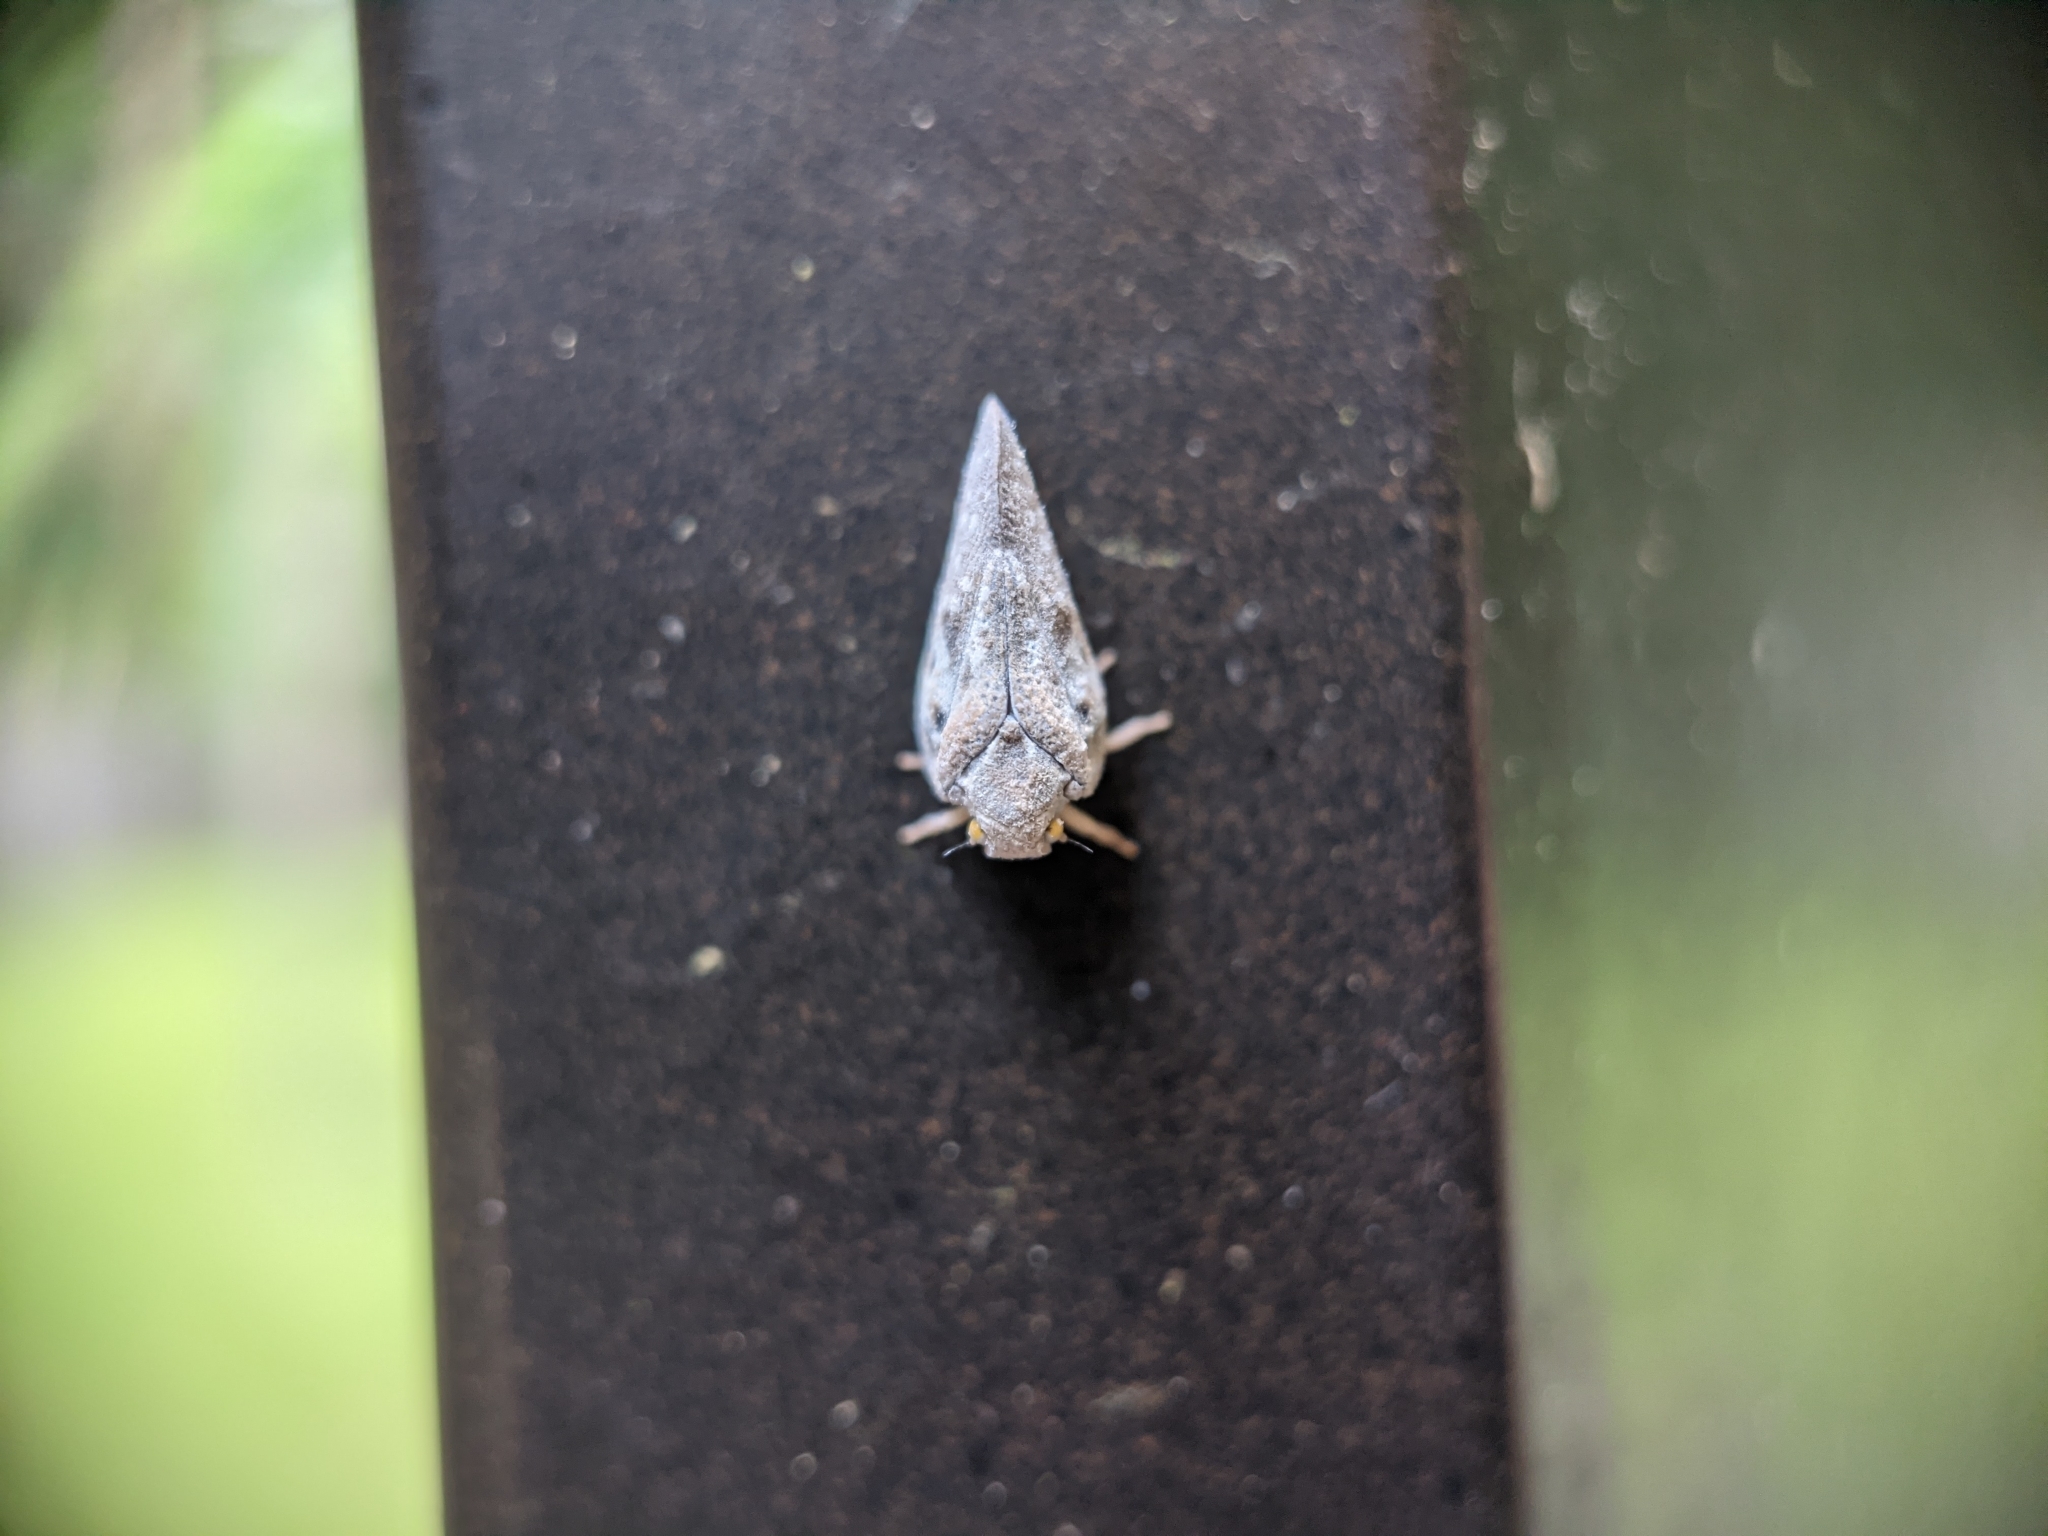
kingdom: Animalia
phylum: Arthropoda
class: Insecta
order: Hemiptera
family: Flatidae
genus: Metcalfa
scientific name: Metcalfa pruinosa
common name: Citrus flatid planthopper
